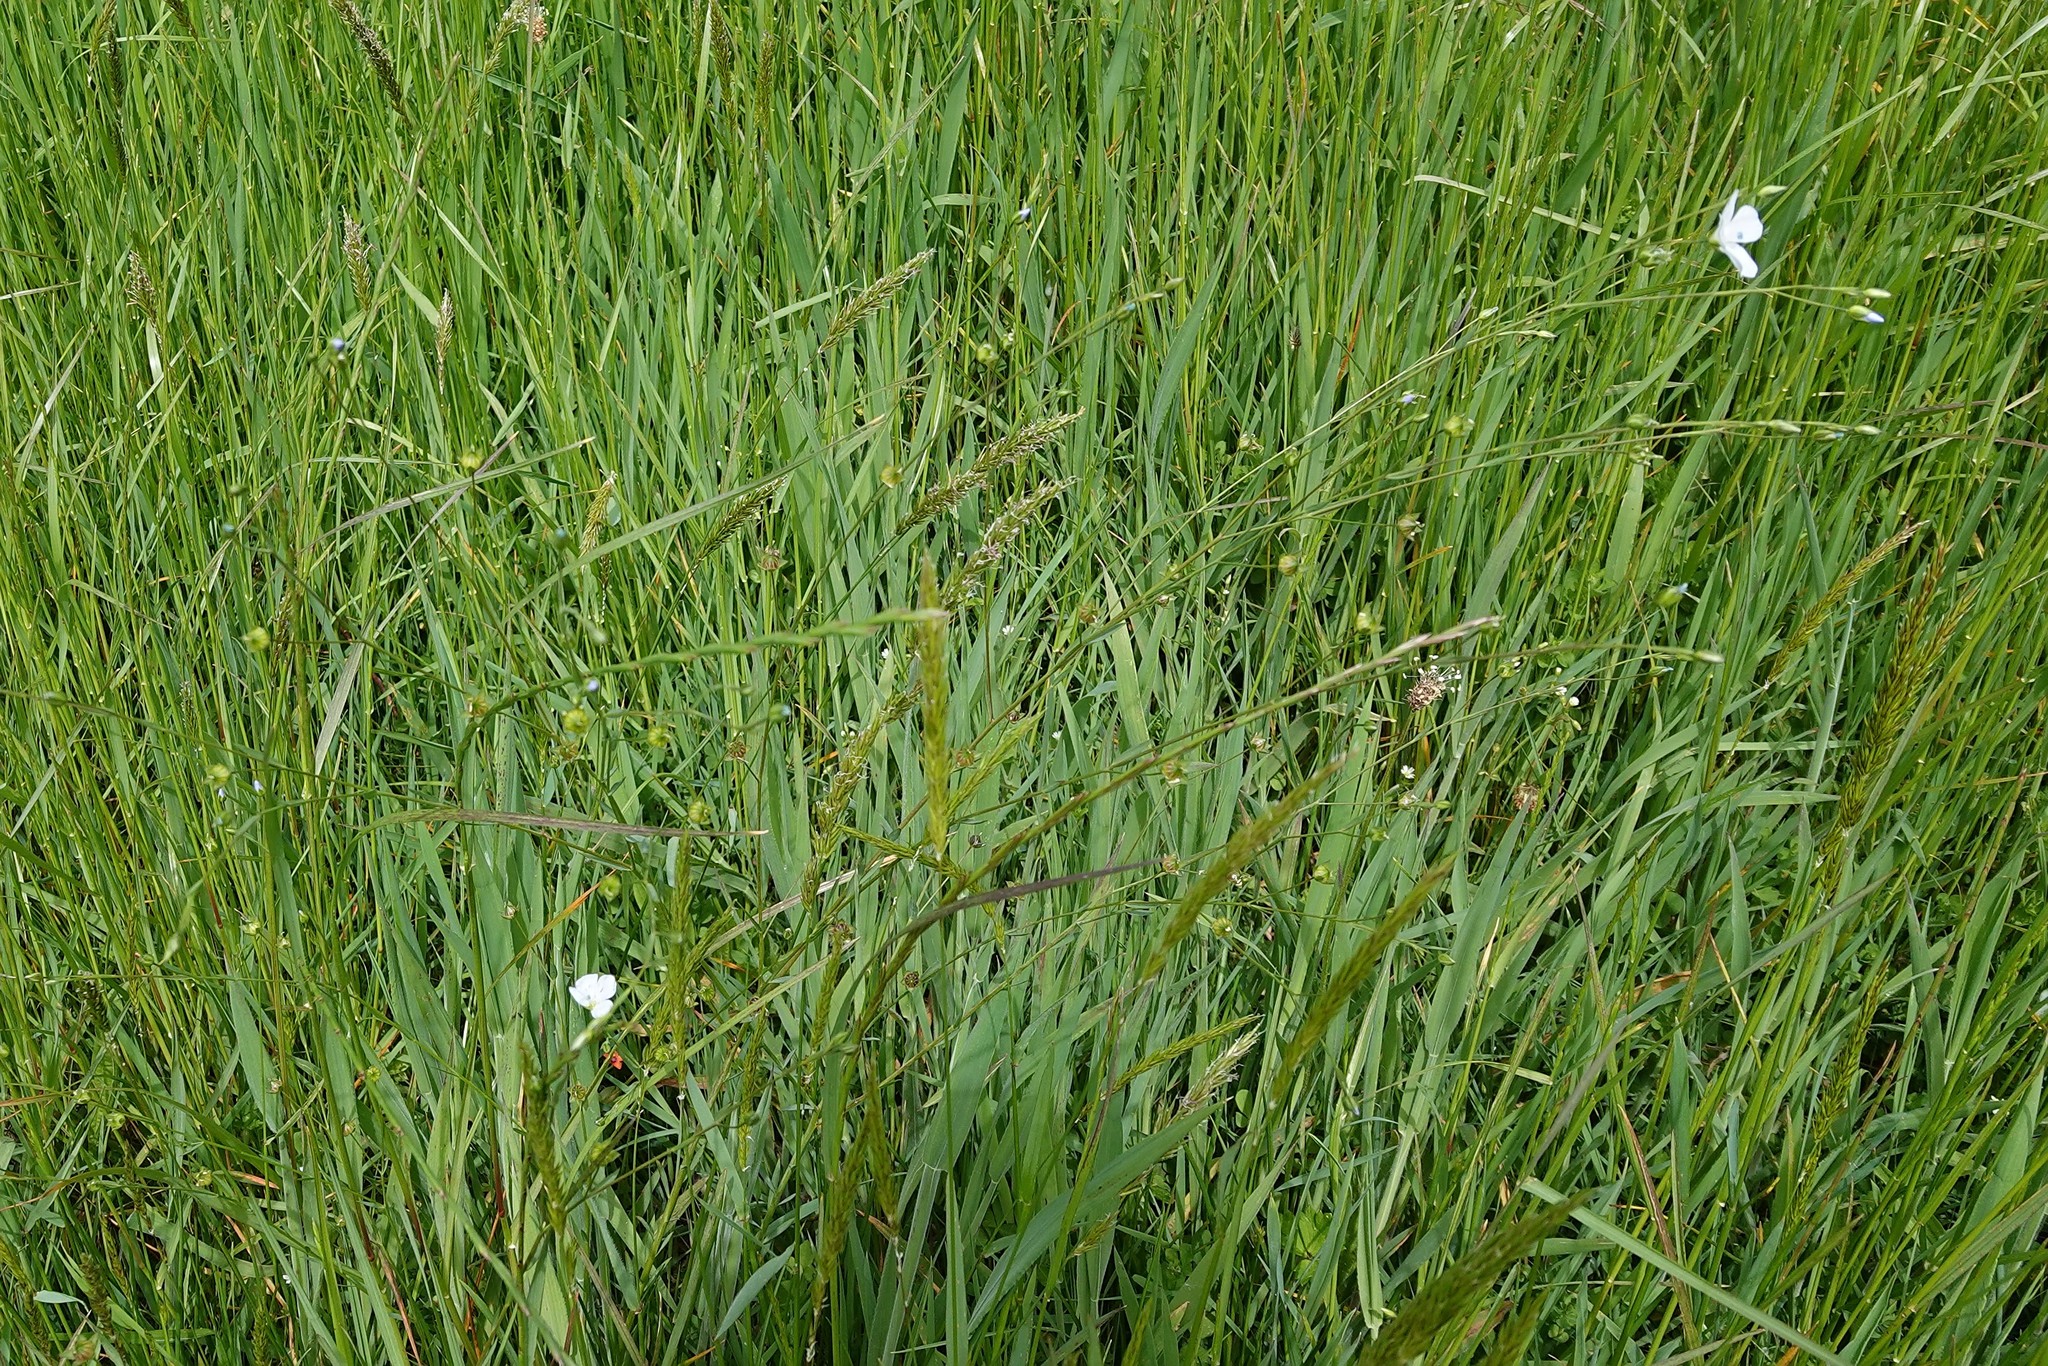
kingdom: Plantae
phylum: Tracheophyta
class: Magnoliopsida
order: Malpighiales
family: Linaceae
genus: Linum
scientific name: Linum bienne
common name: Pale flax
